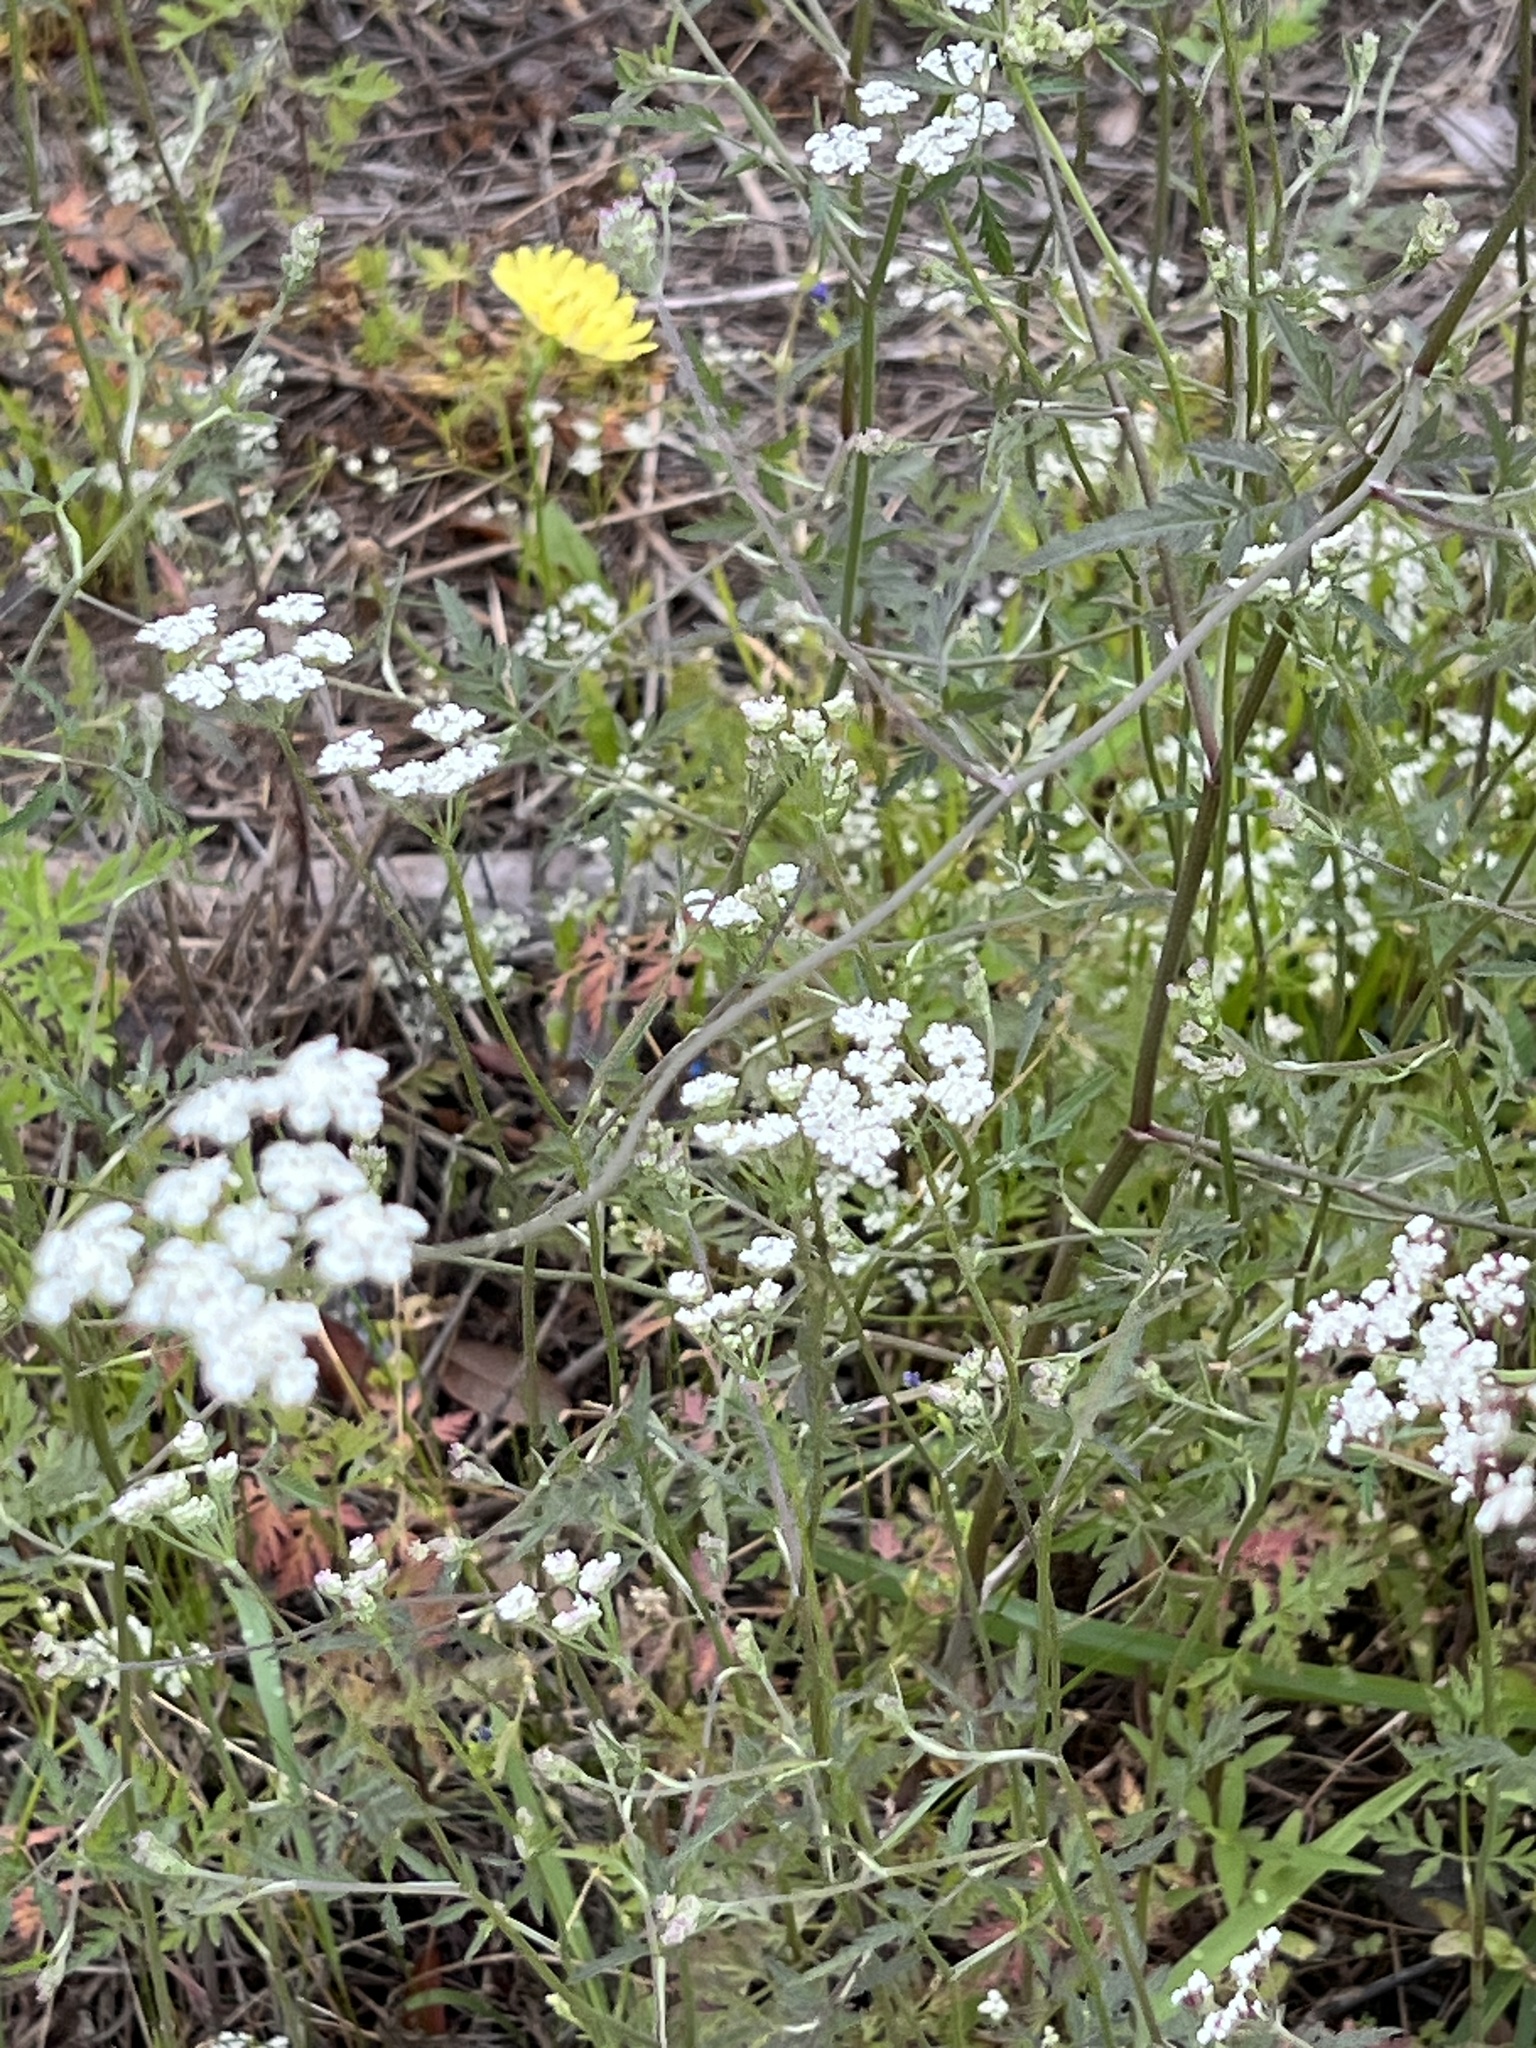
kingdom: Plantae
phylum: Tracheophyta
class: Magnoliopsida
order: Apiales
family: Apiaceae
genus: Torilis
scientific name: Torilis arvensis
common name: Spreading hedge-parsley
